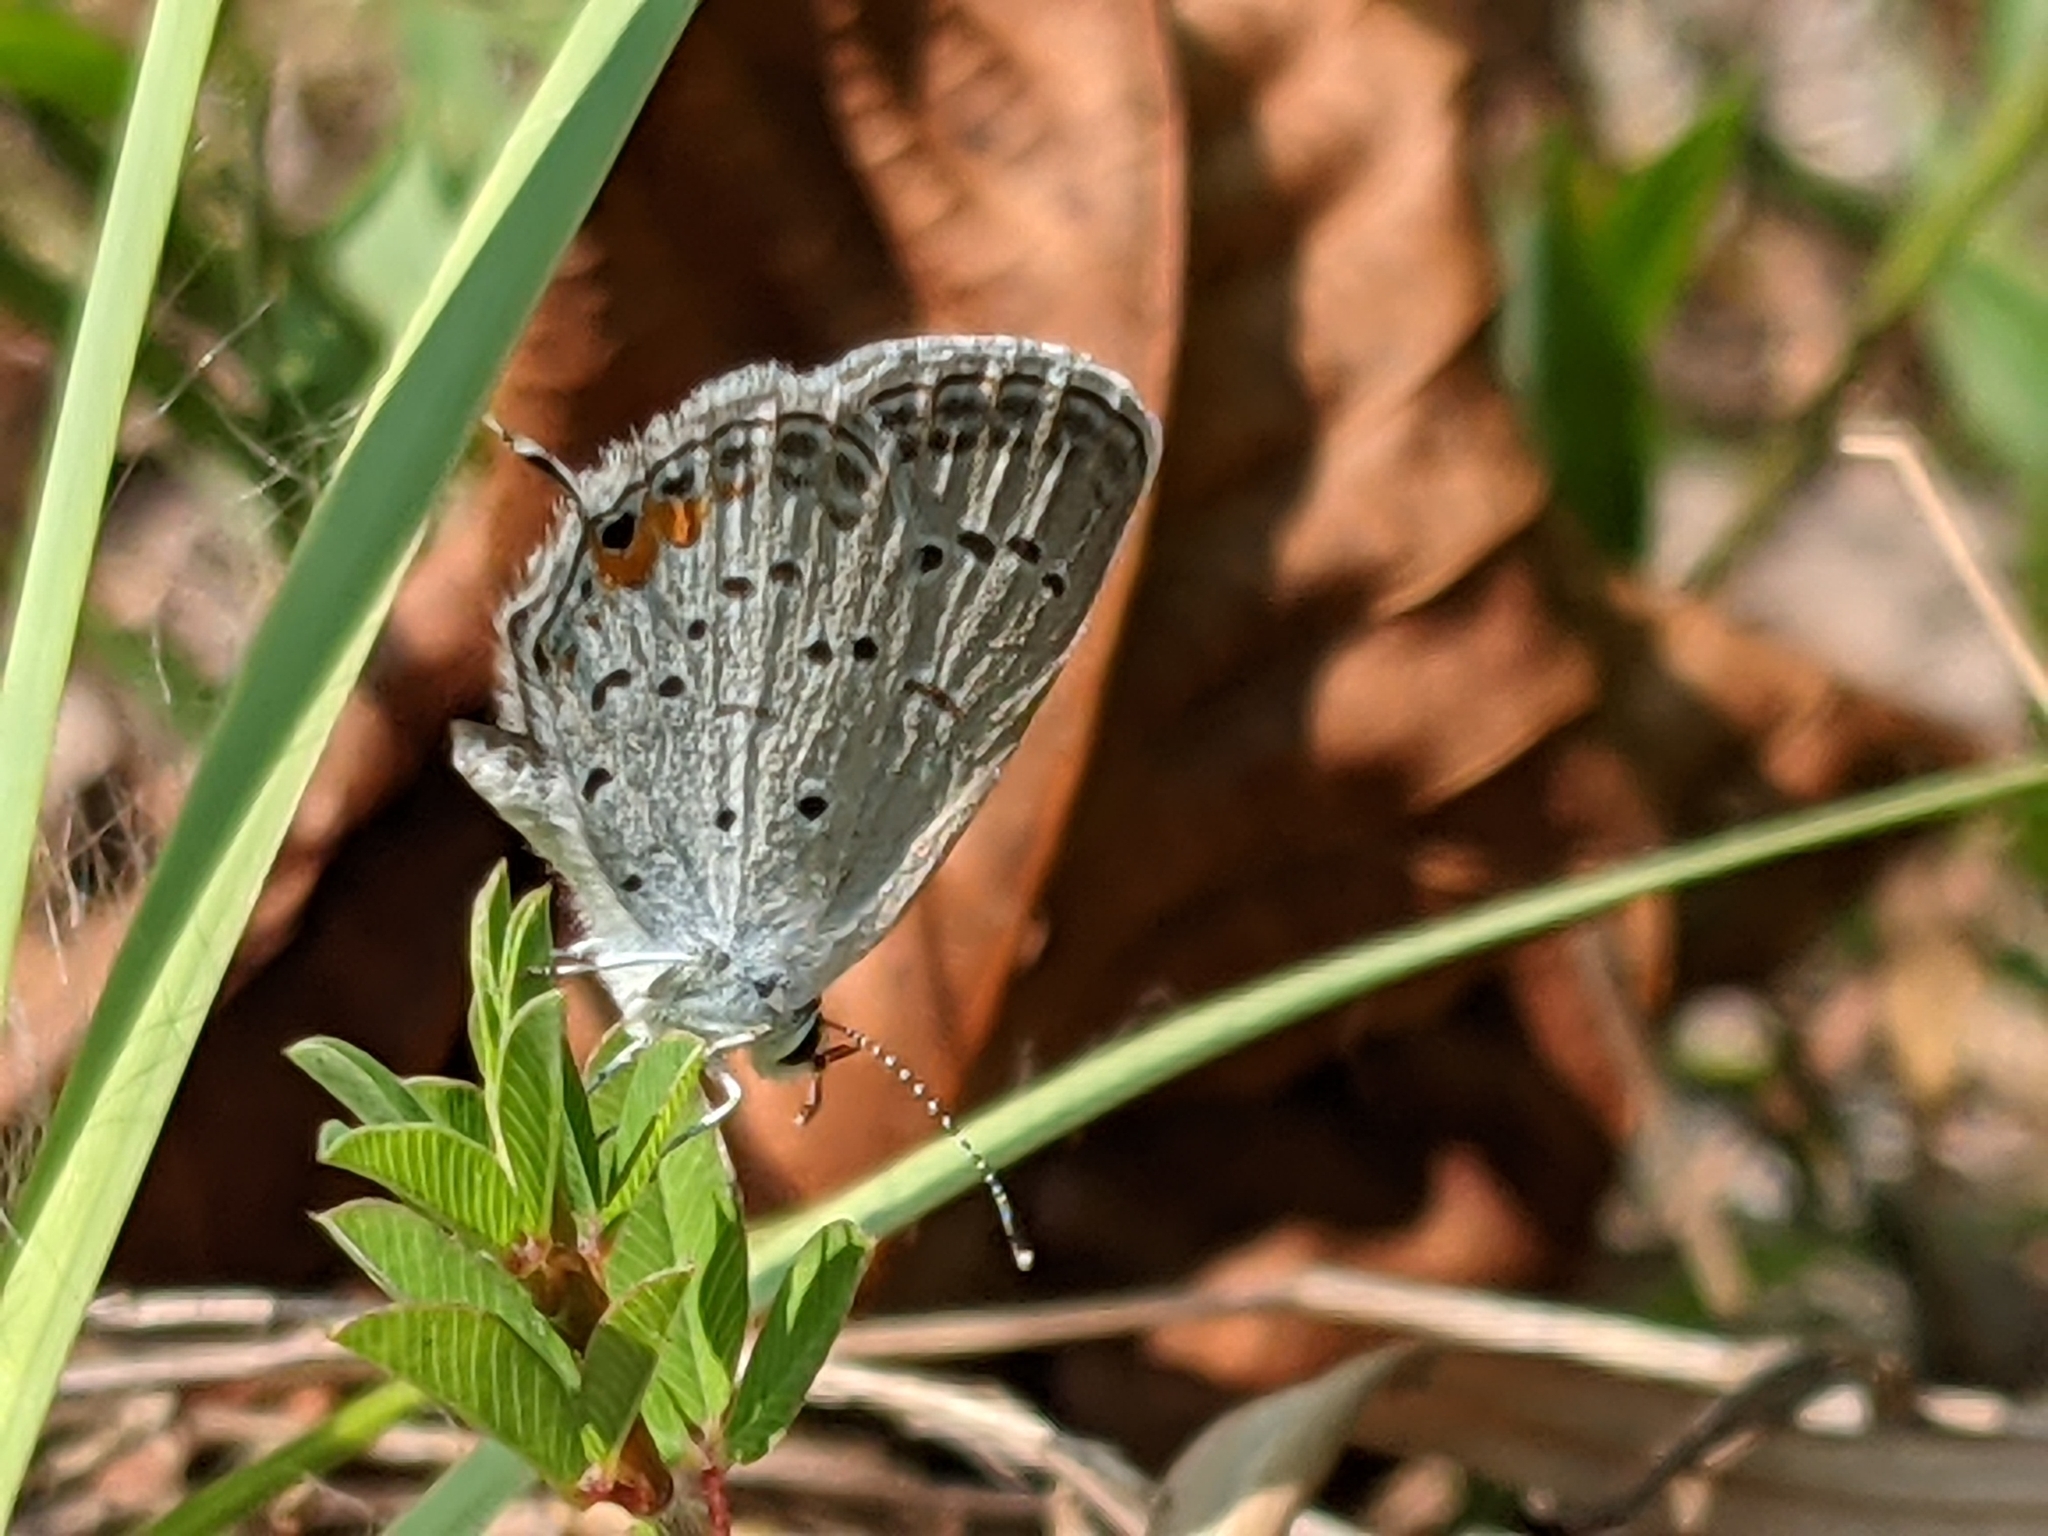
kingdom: Animalia
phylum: Arthropoda
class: Insecta
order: Lepidoptera
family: Lycaenidae
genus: Elkalyce
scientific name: Elkalyce comyntas
